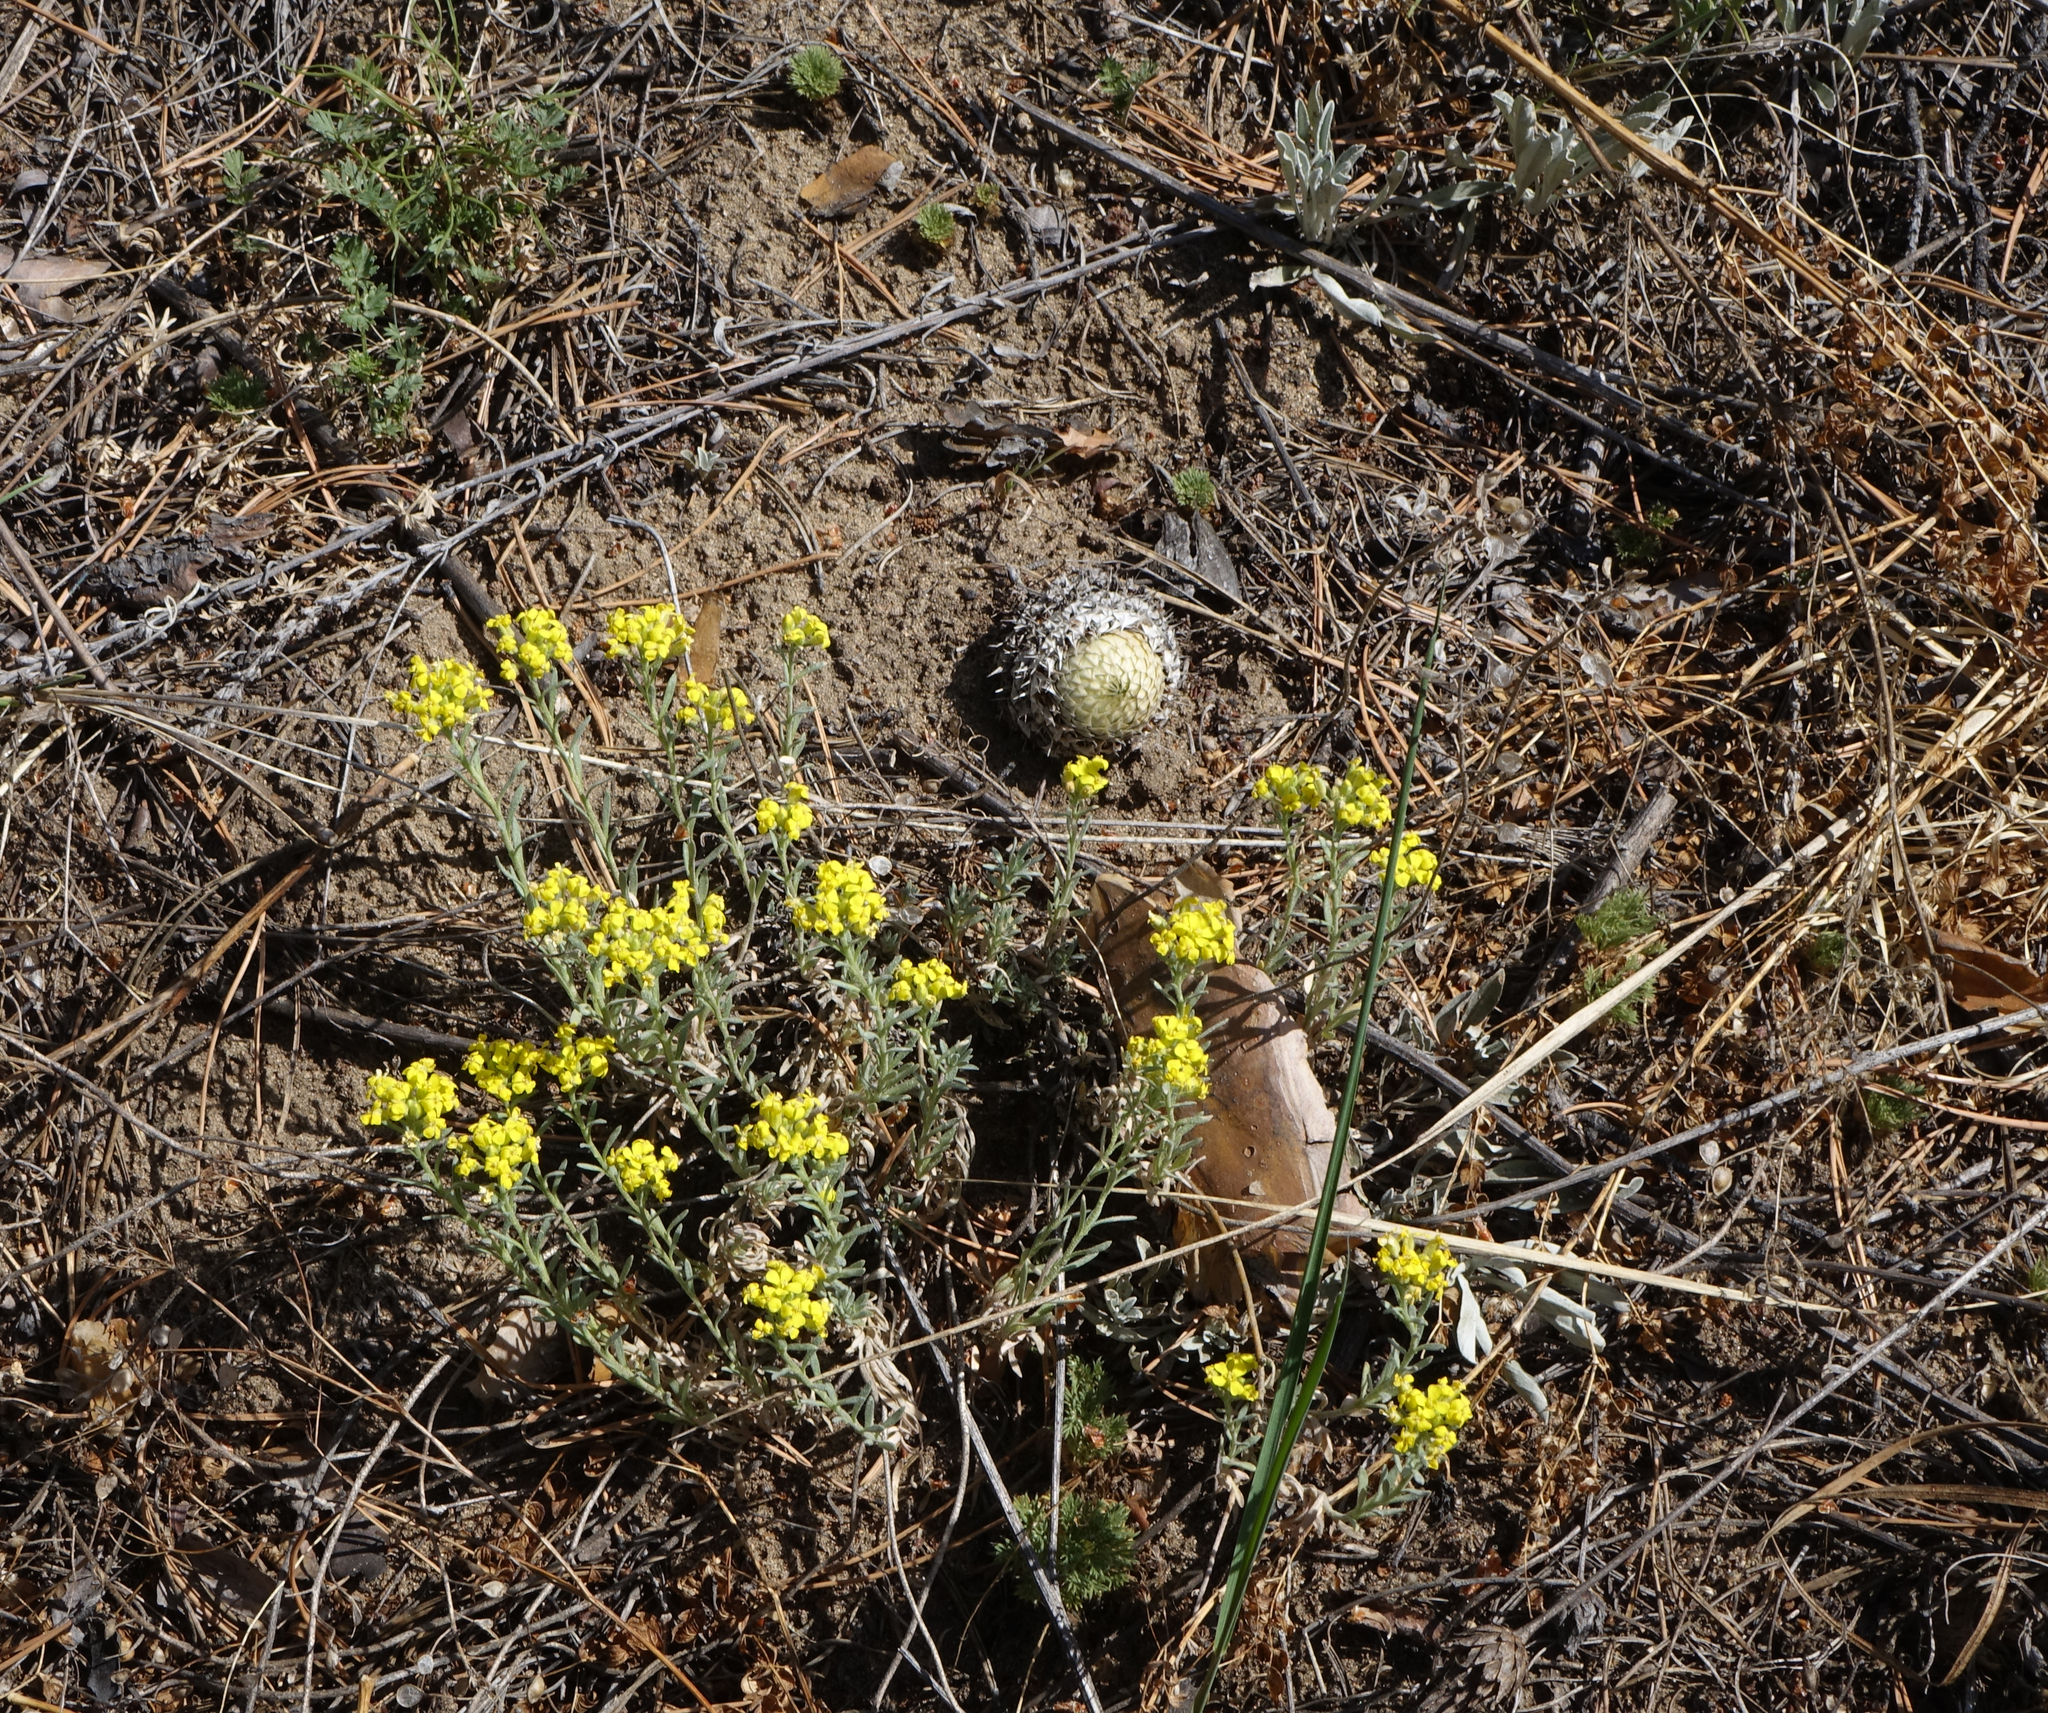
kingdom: Plantae
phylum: Tracheophyta
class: Magnoliopsida
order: Brassicales
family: Brassicaceae
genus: Alyssum
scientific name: Alyssum lenense
